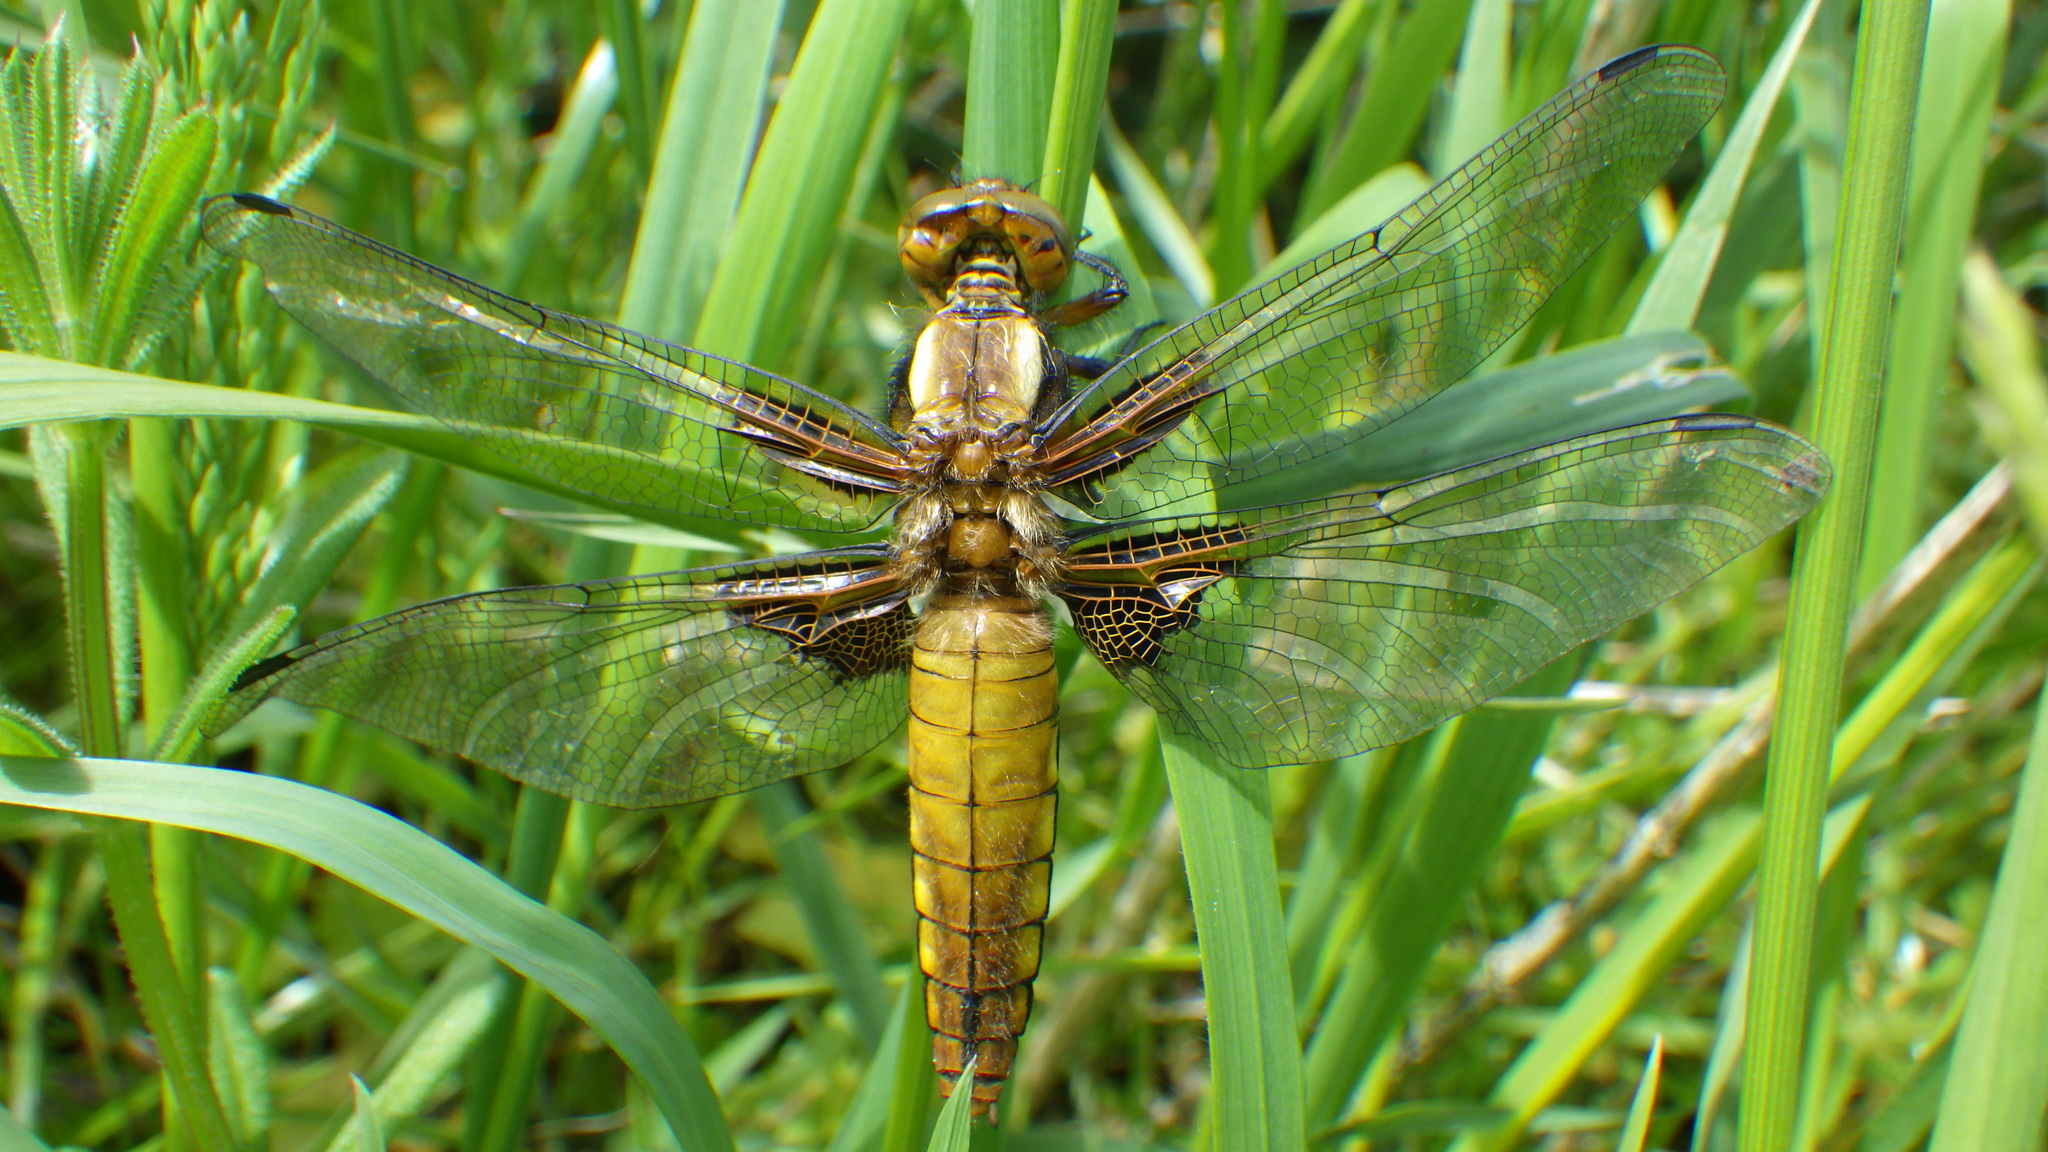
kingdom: Animalia
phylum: Arthropoda
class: Insecta
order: Odonata
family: Libellulidae
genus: Libellula
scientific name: Libellula depressa
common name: Broad-bodied chaser
